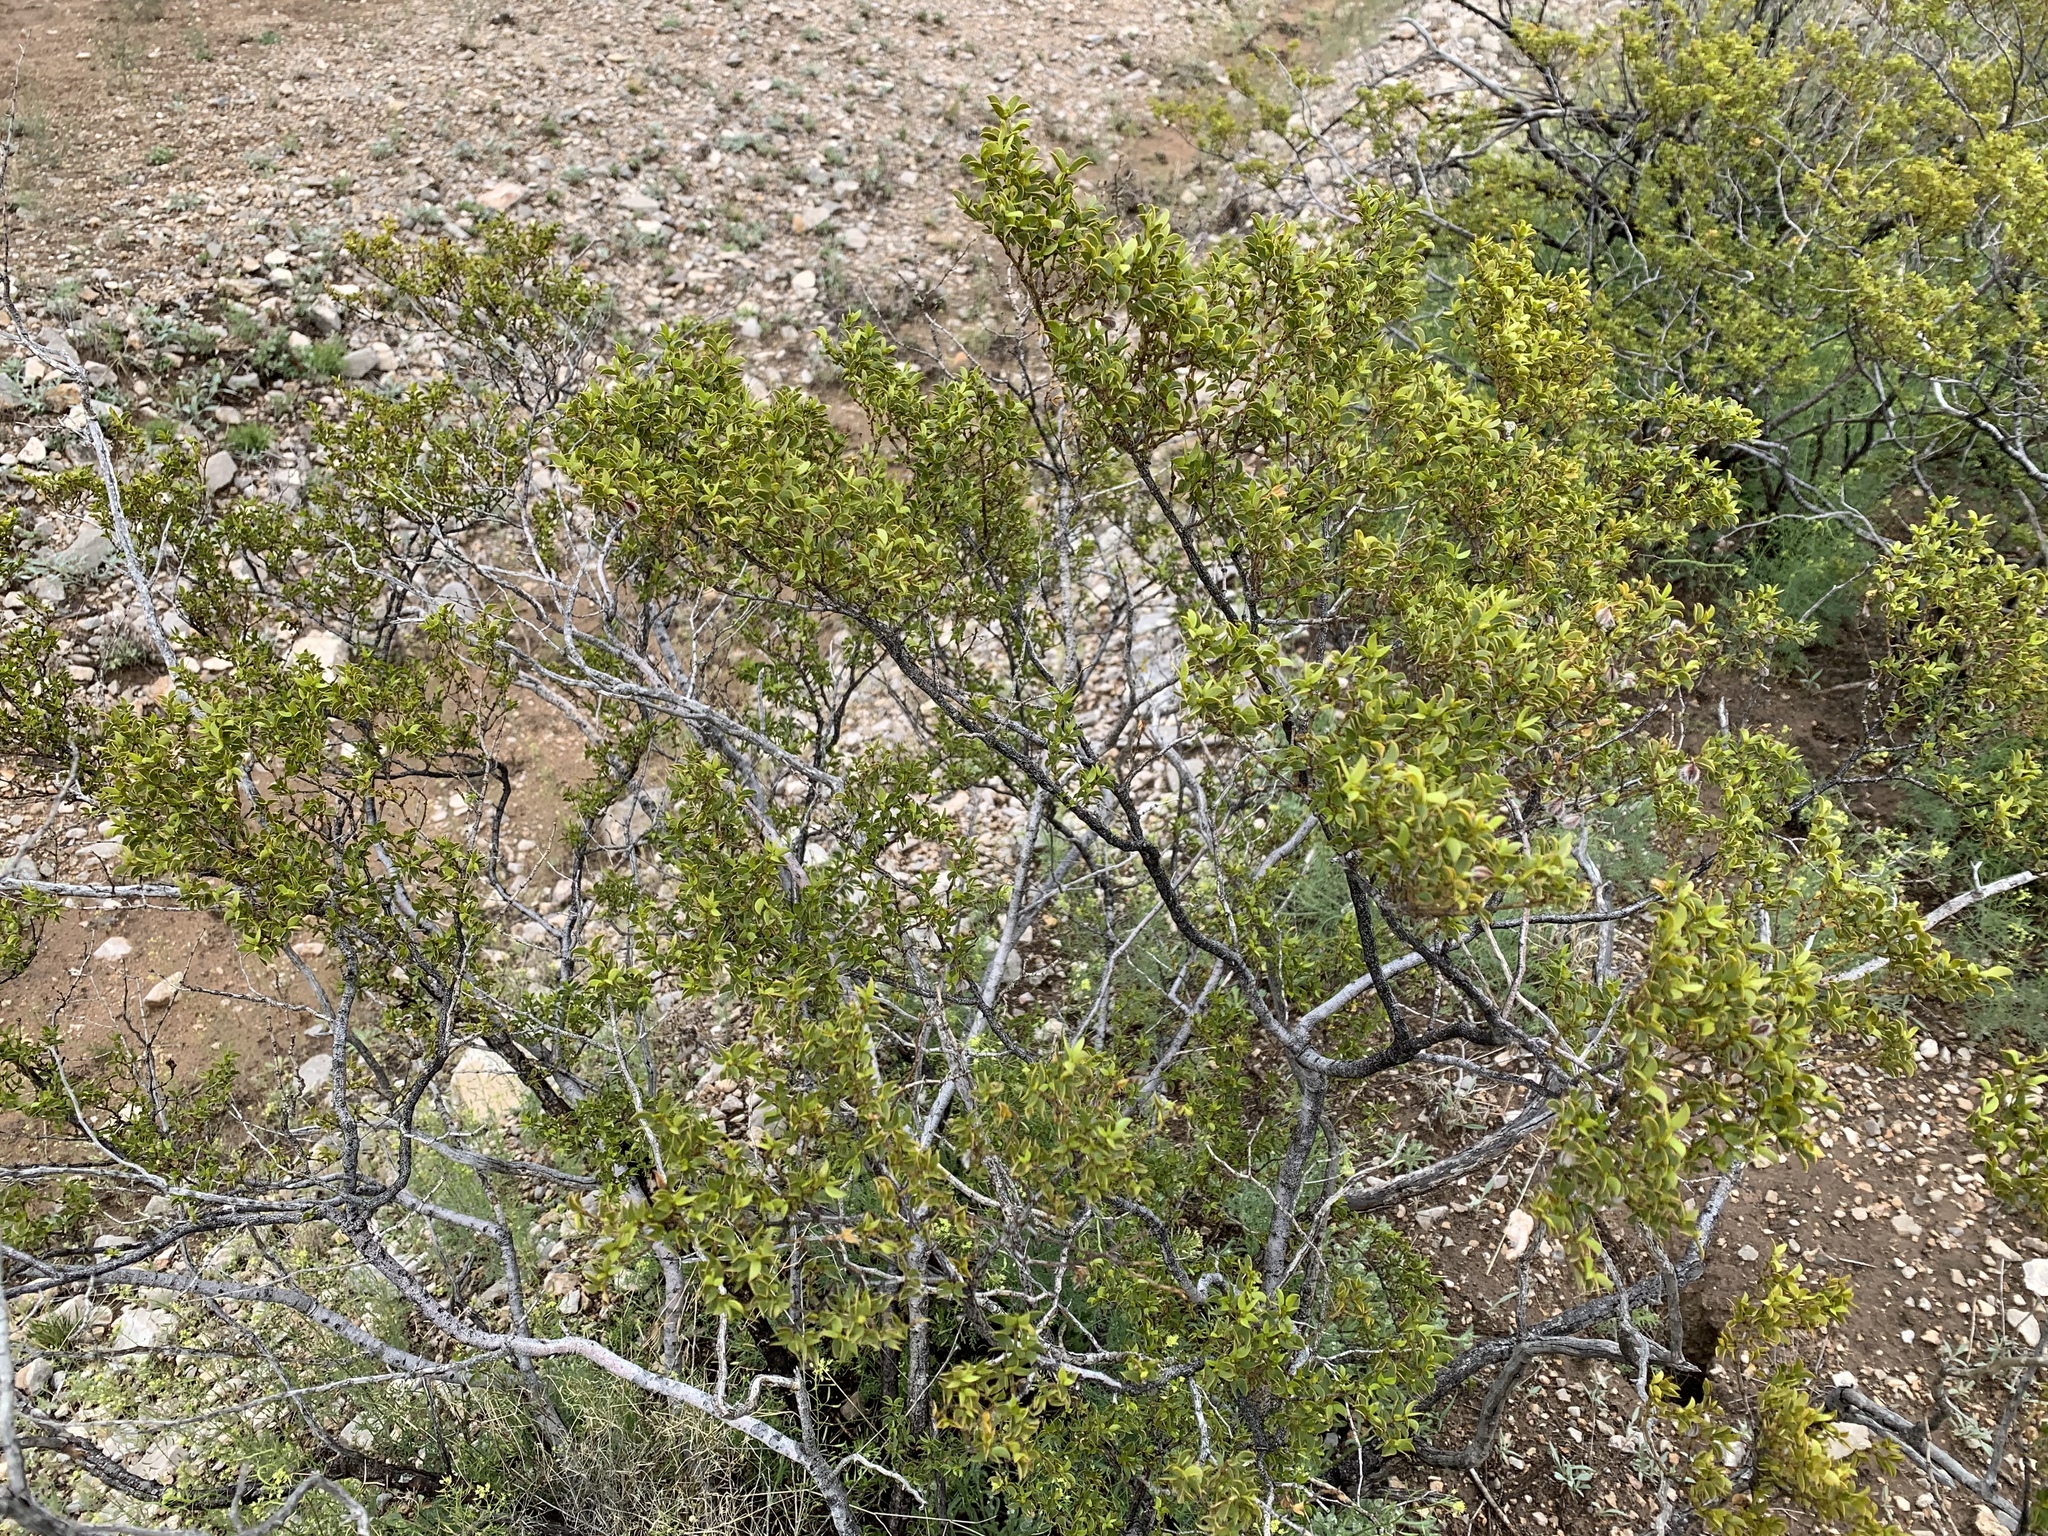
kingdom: Plantae
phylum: Tracheophyta
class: Magnoliopsida
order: Zygophyllales
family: Zygophyllaceae
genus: Larrea
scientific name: Larrea tridentata
